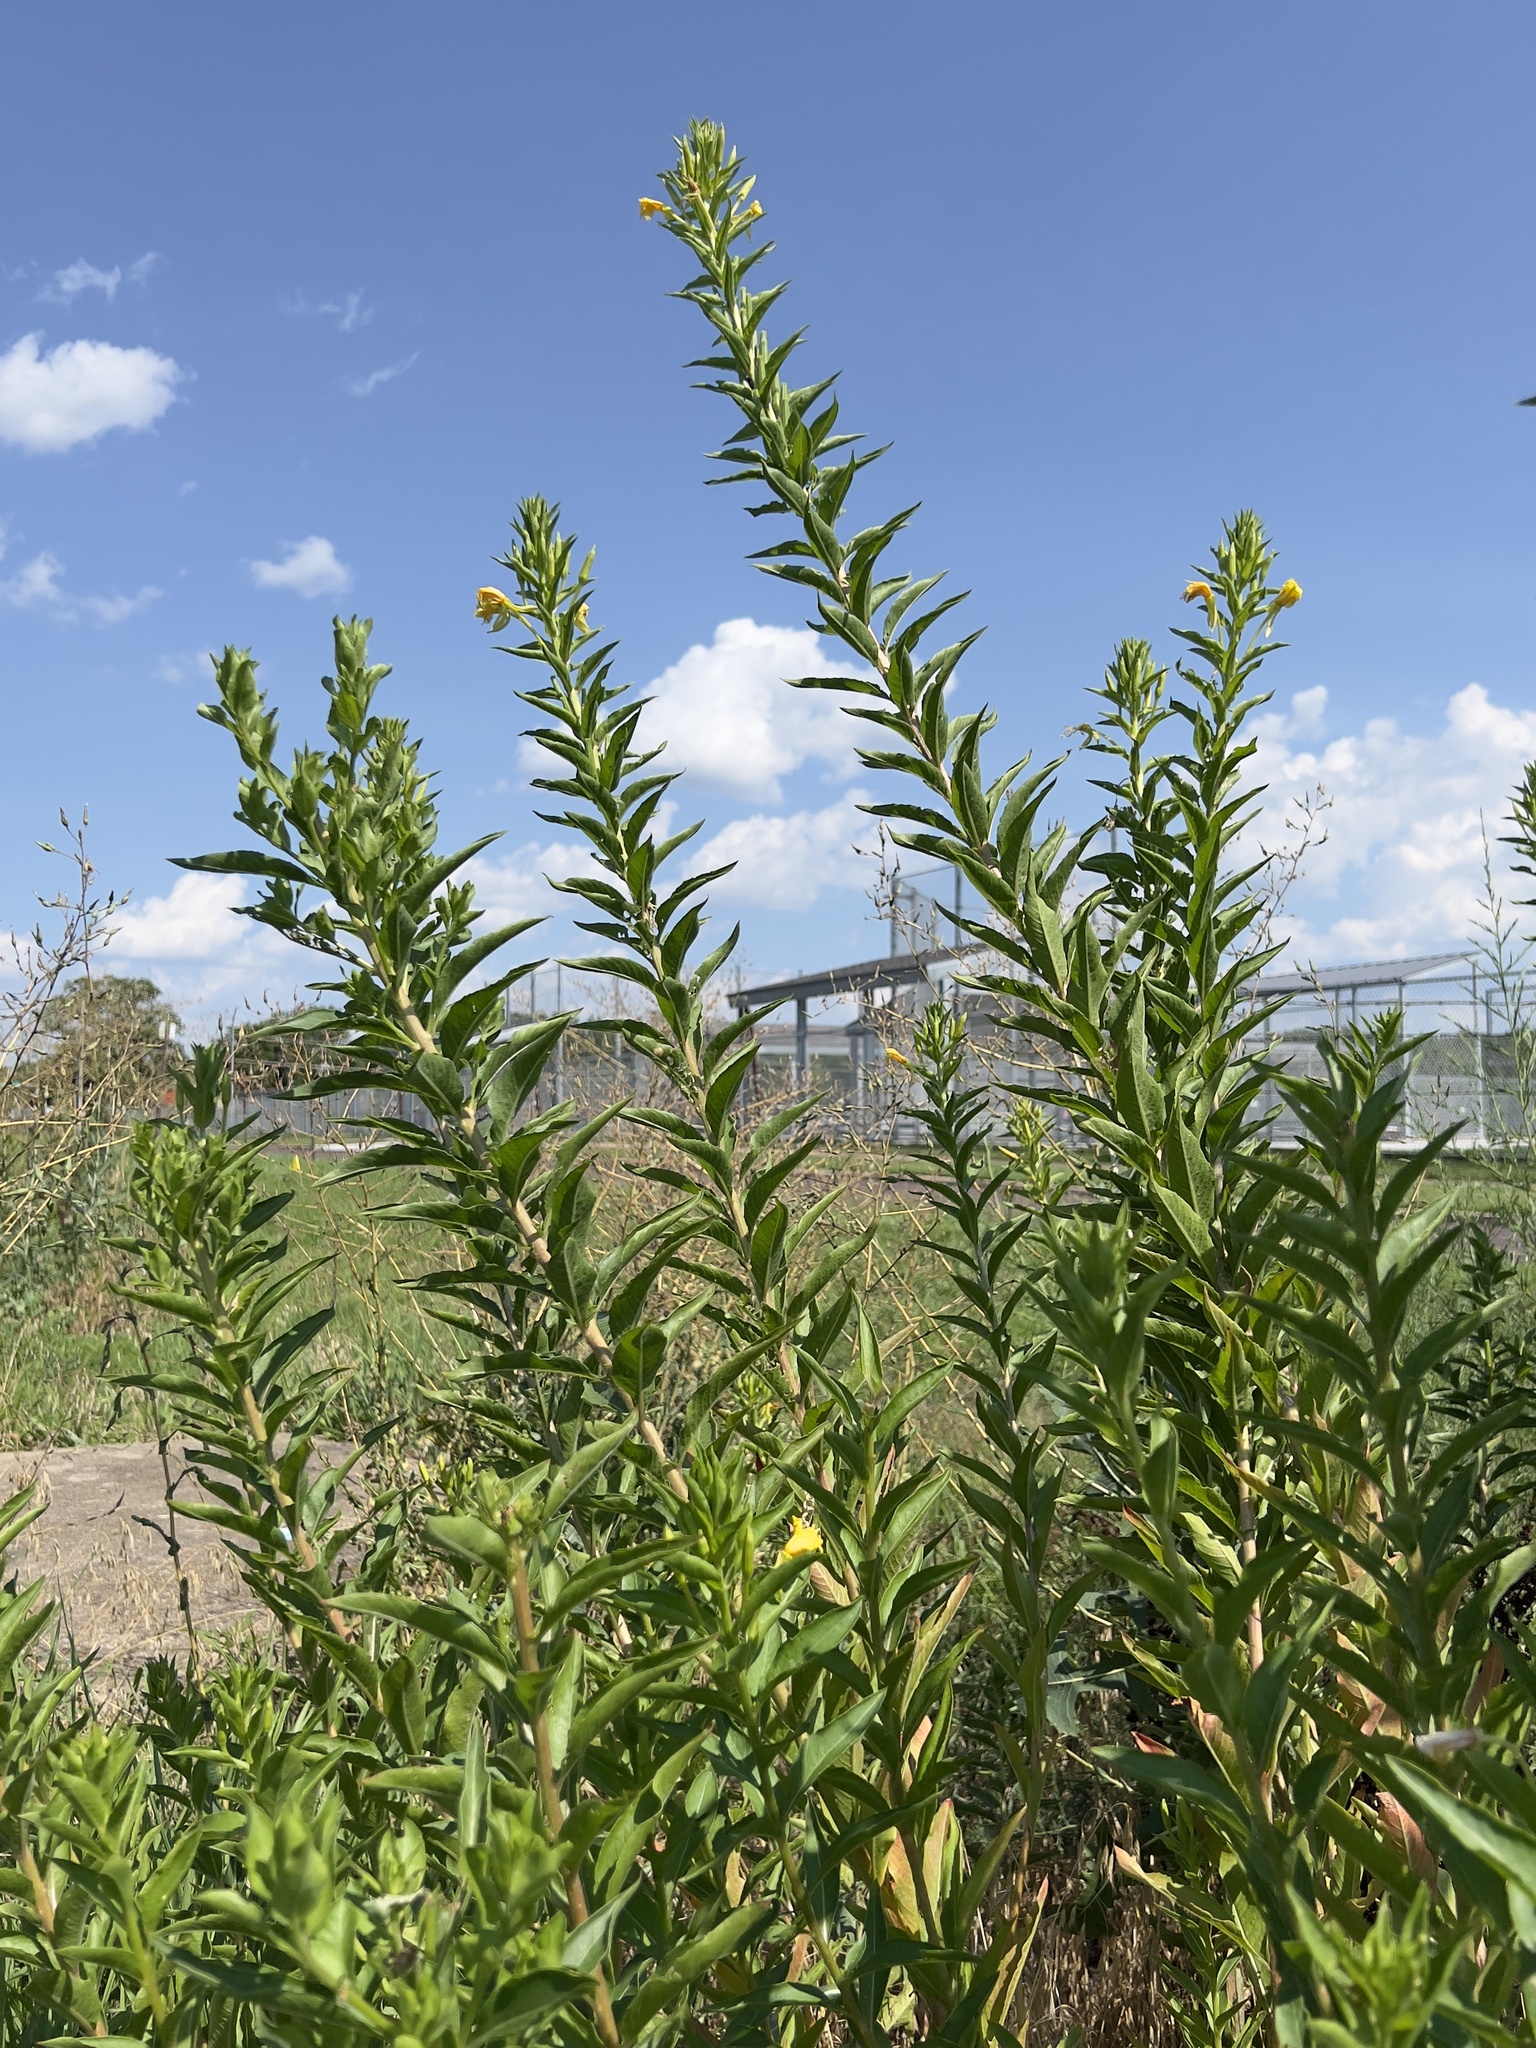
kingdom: Plantae
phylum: Tracheophyta
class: Magnoliopsida
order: Myrtales
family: Onagraceae
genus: Oenothera
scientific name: Oenothera biennis
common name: Common evening-primrose
